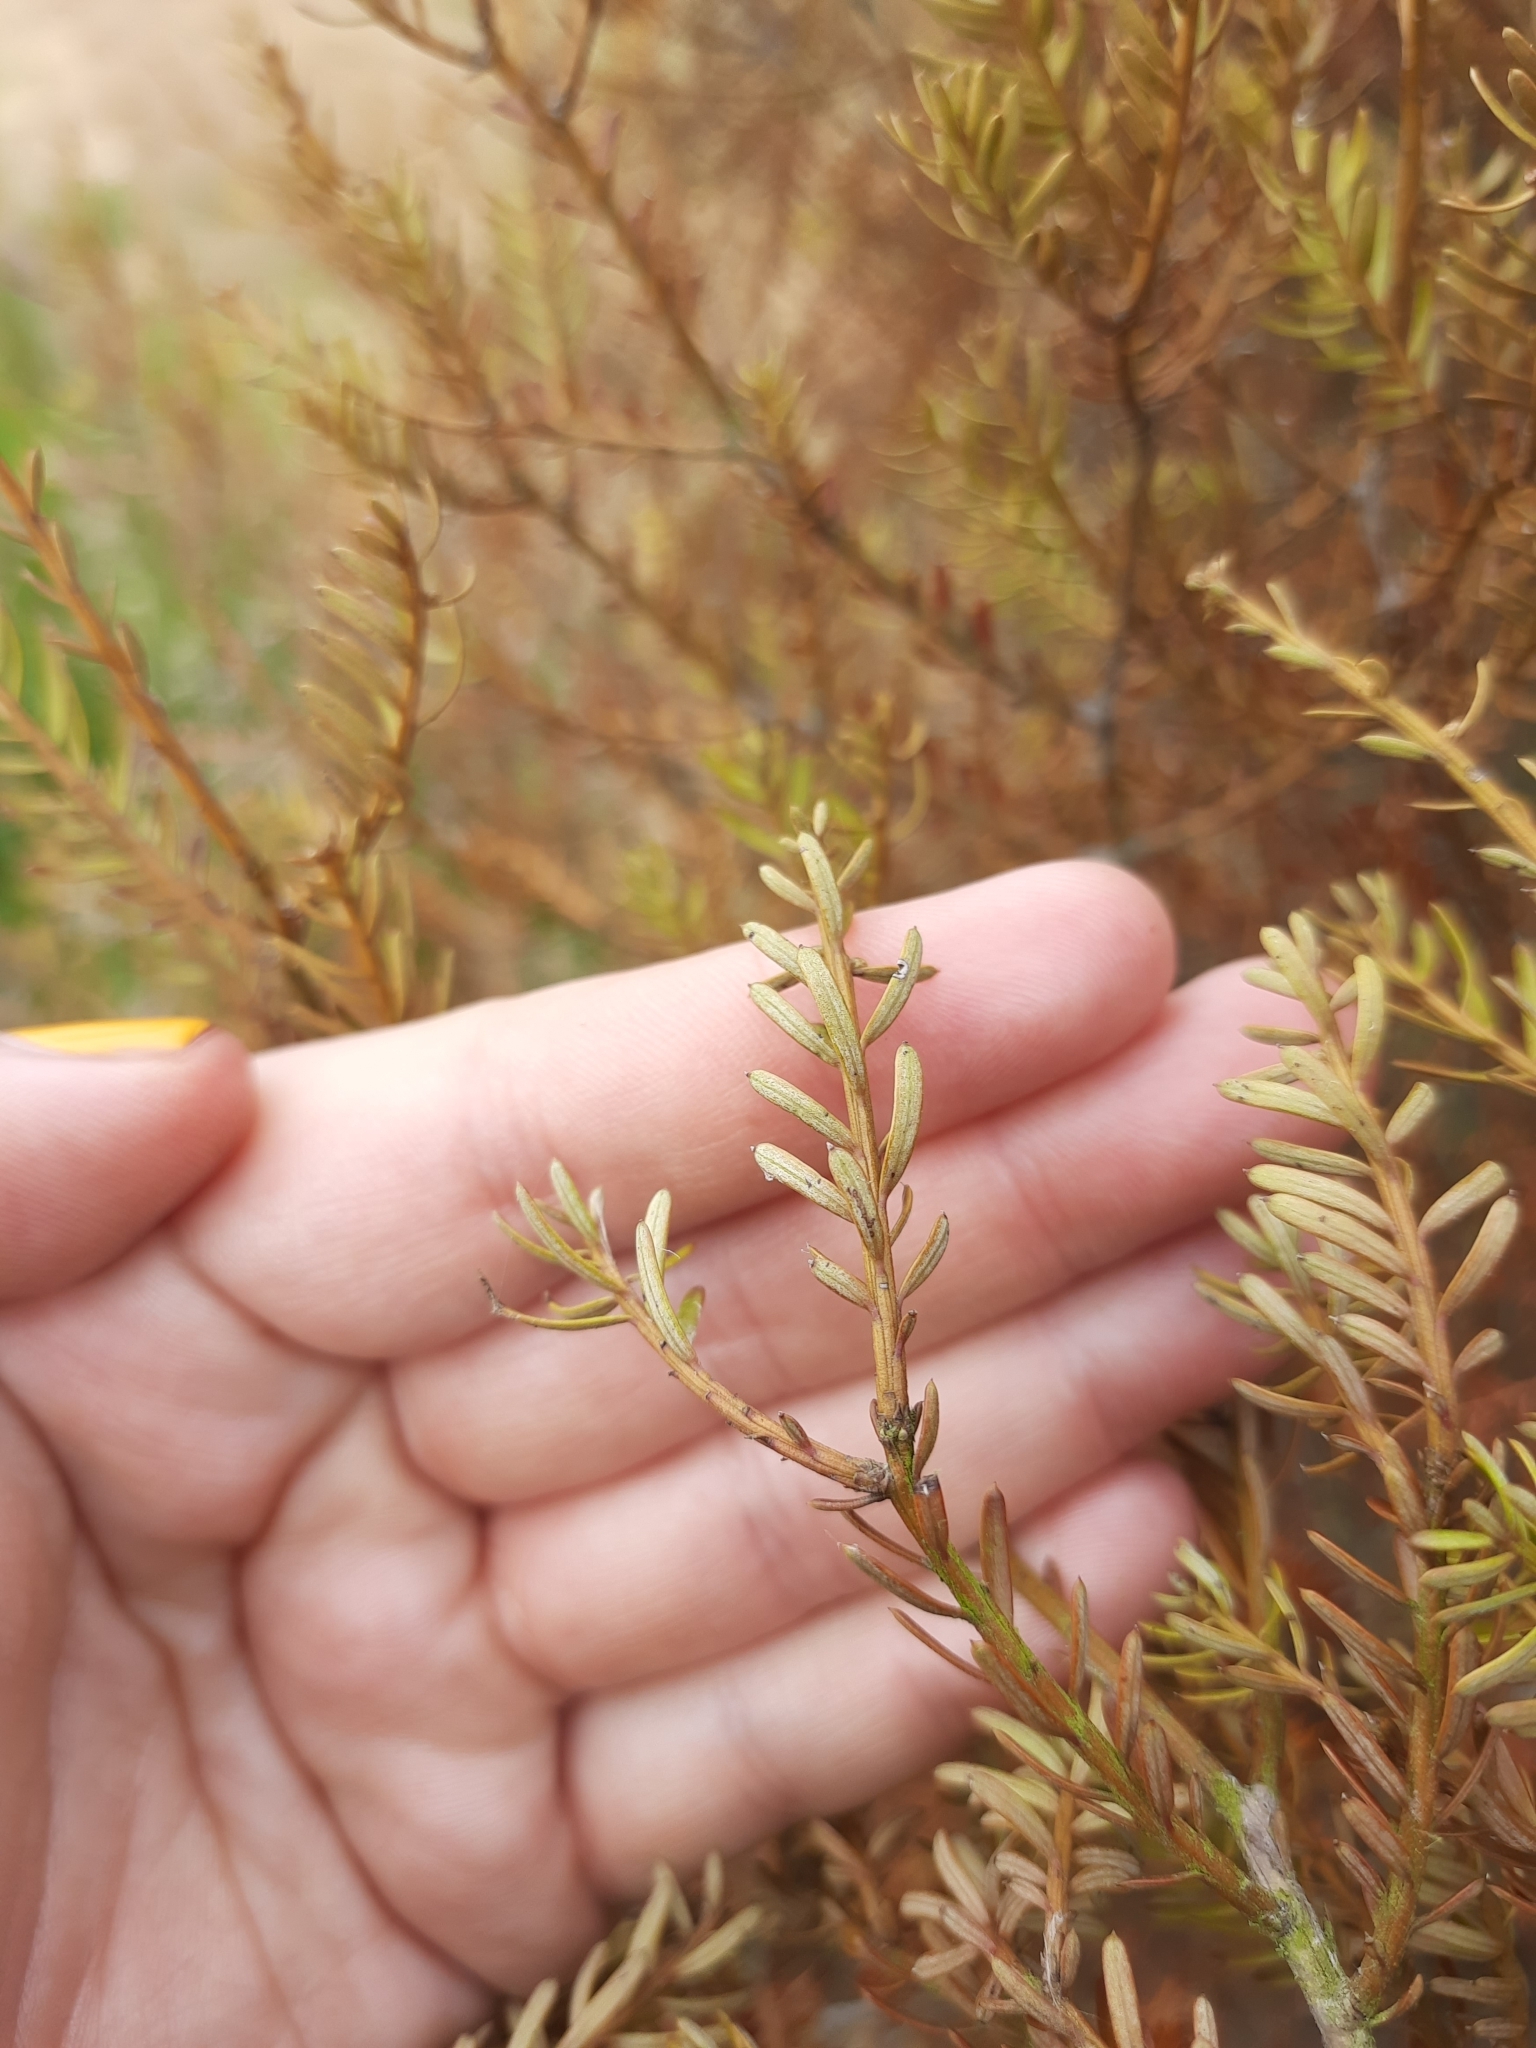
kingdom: Plantae
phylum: Tracheophyta
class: Pinopsida
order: Pinales
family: Podocarpaceae
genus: Prumnopitys
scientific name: Prumnopitys taxifolia
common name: Matai
